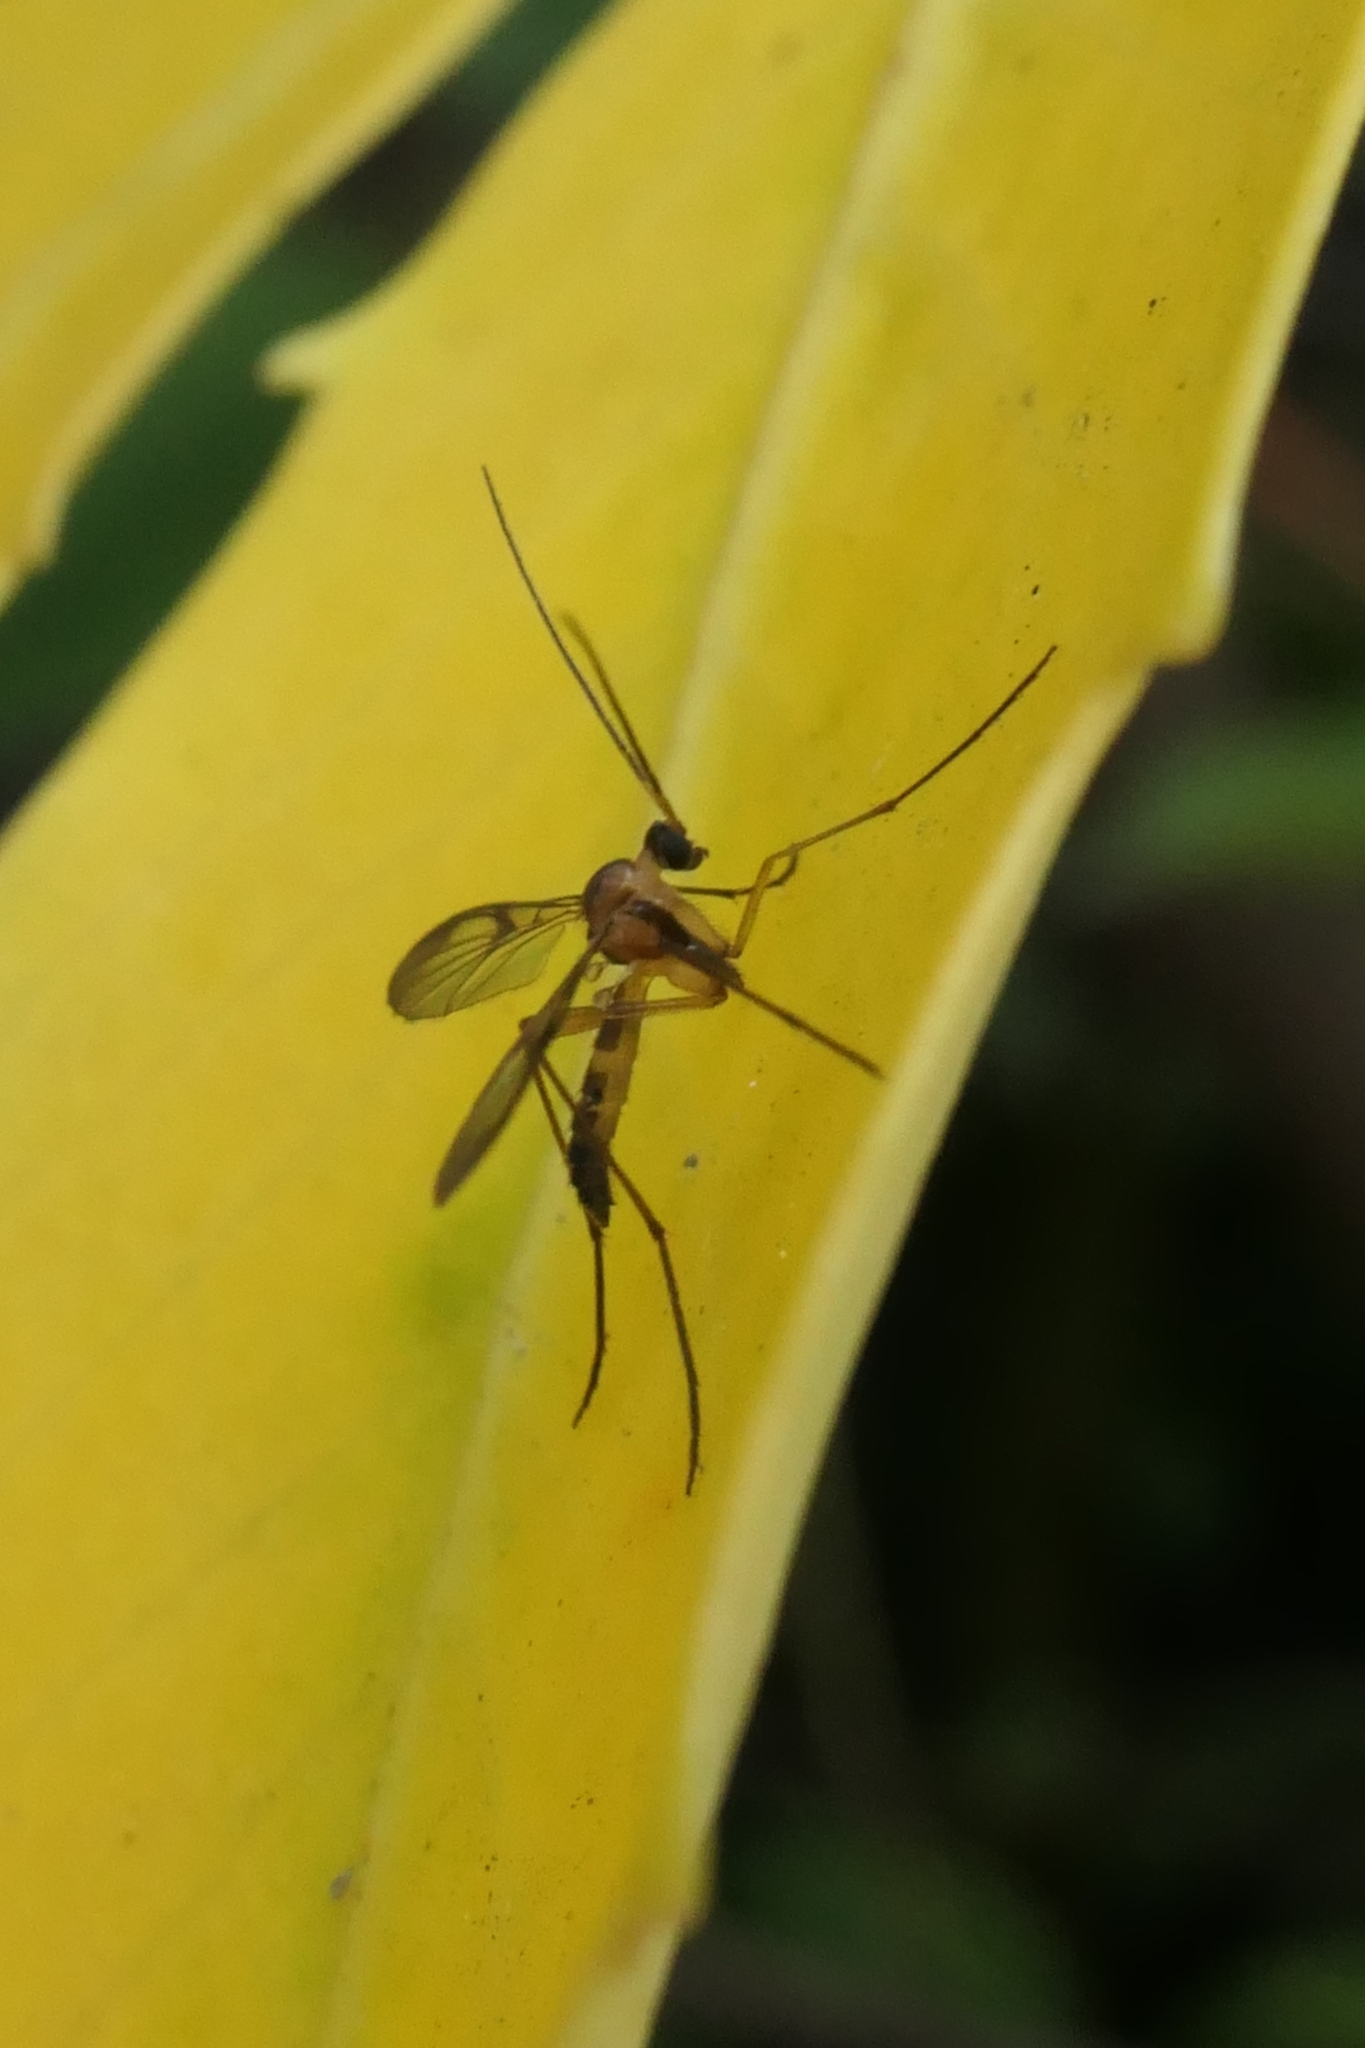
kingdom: Animalia
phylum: Arthropoda
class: Insecta
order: Diptera
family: Keroplatidae
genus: Macrocera
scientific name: Macrocera scoparia
